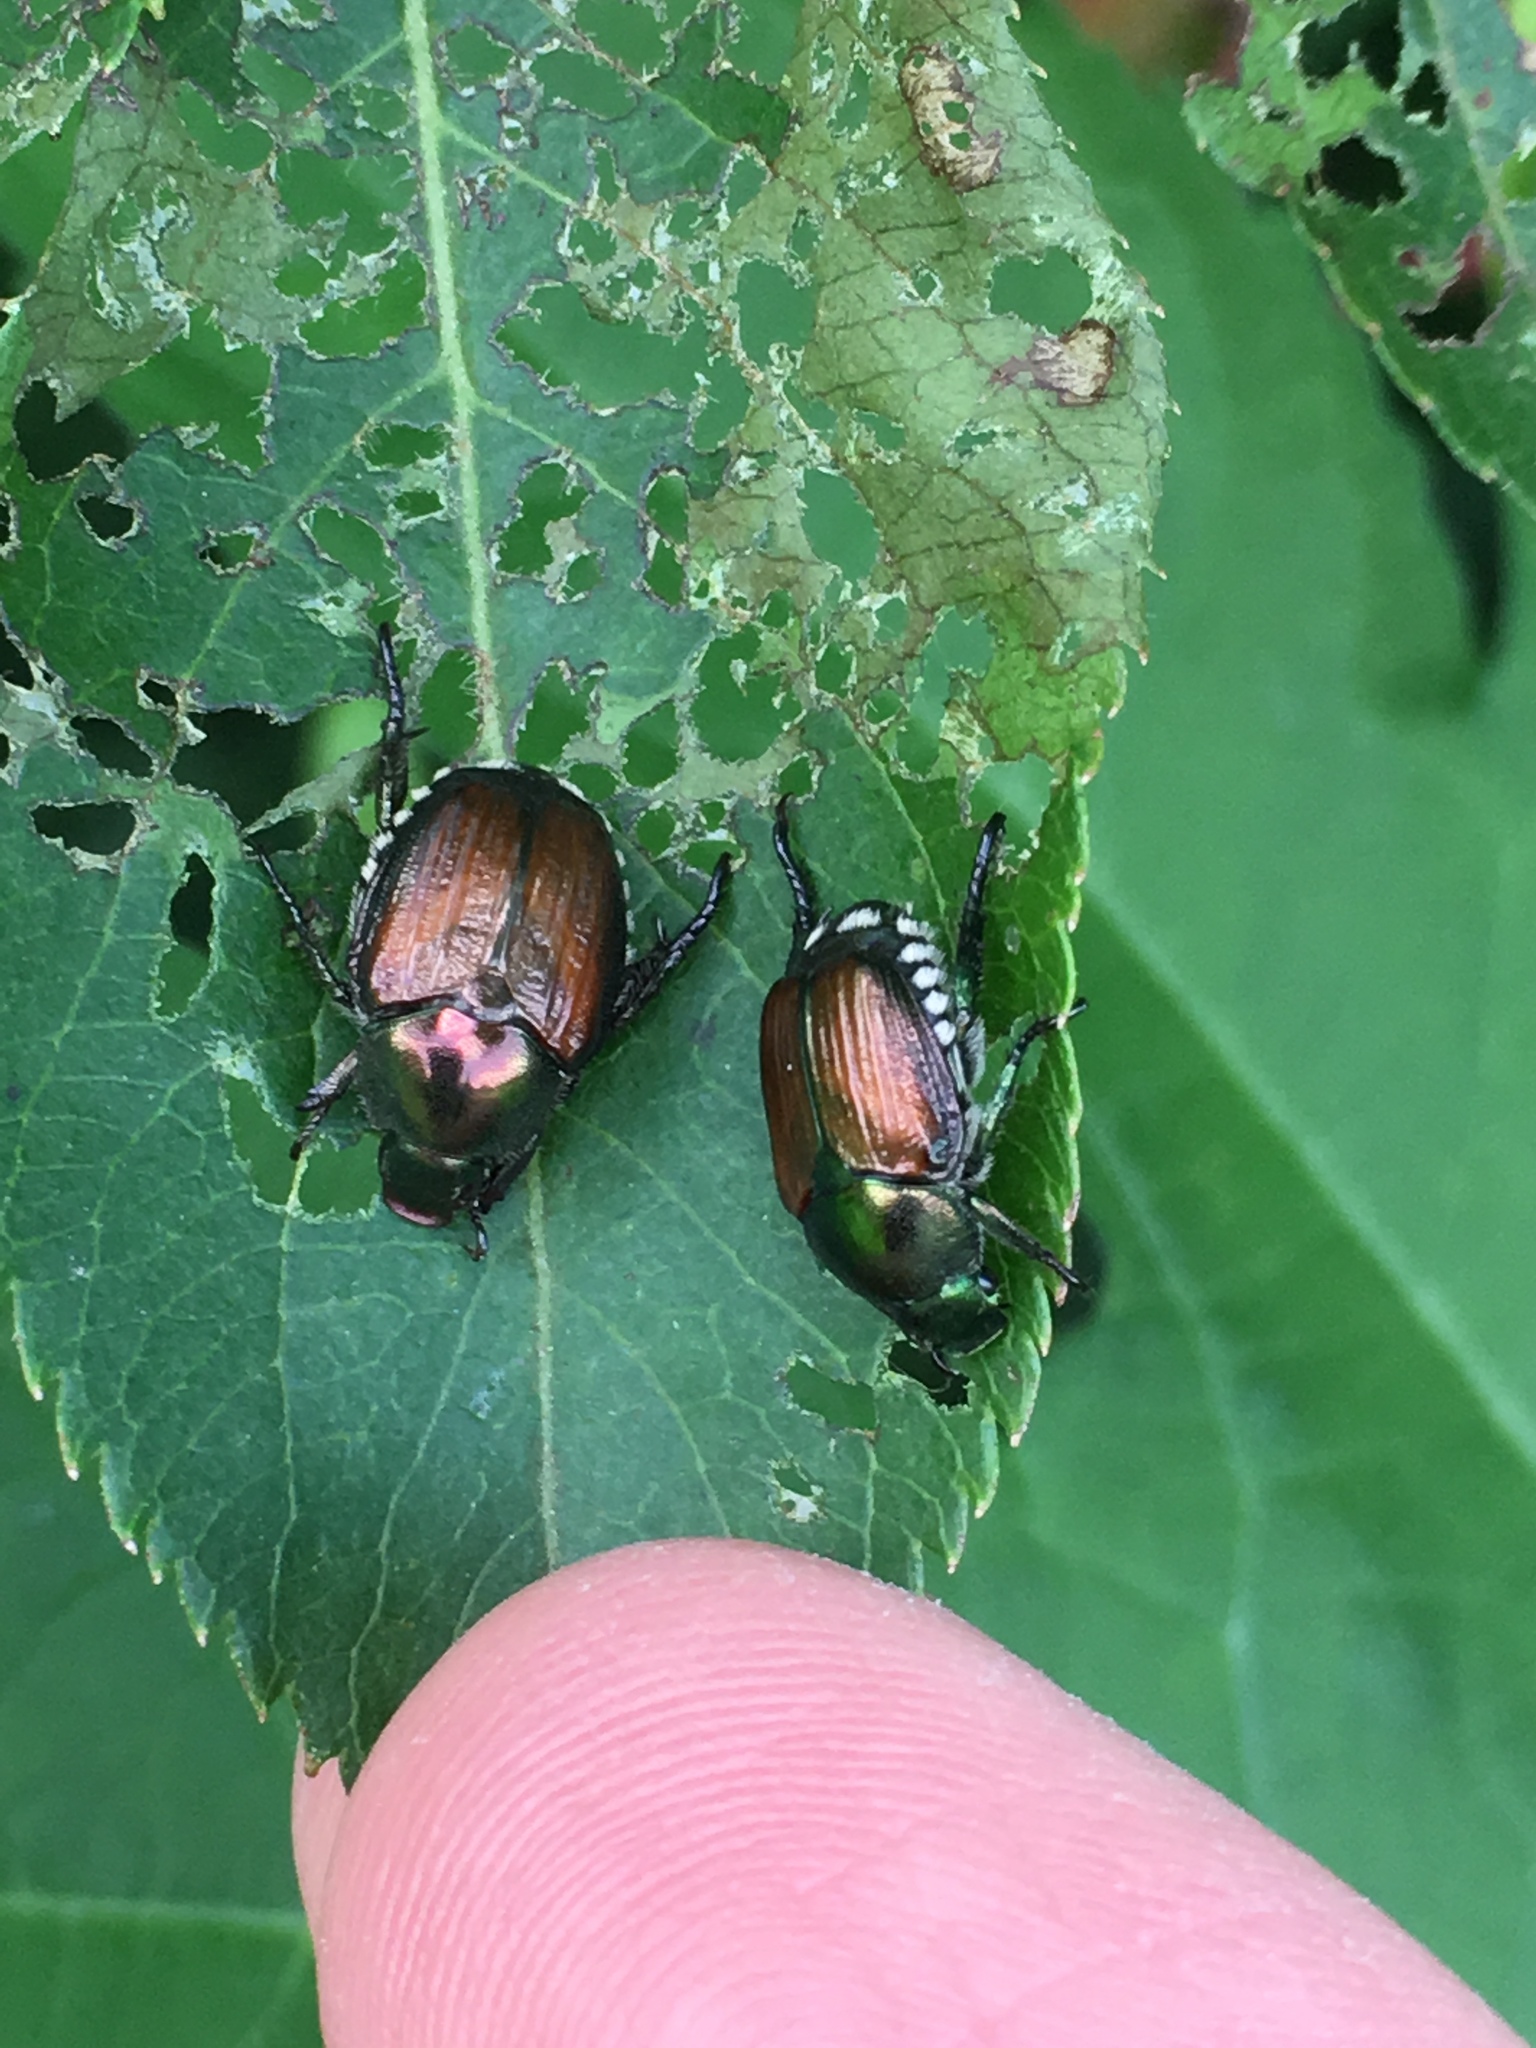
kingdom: Animalia
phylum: Arthropoda
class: Insecta
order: Coleoptera
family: Scarabaeidae
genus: Popillia
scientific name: Popillia japonica
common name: Japanese beetle
